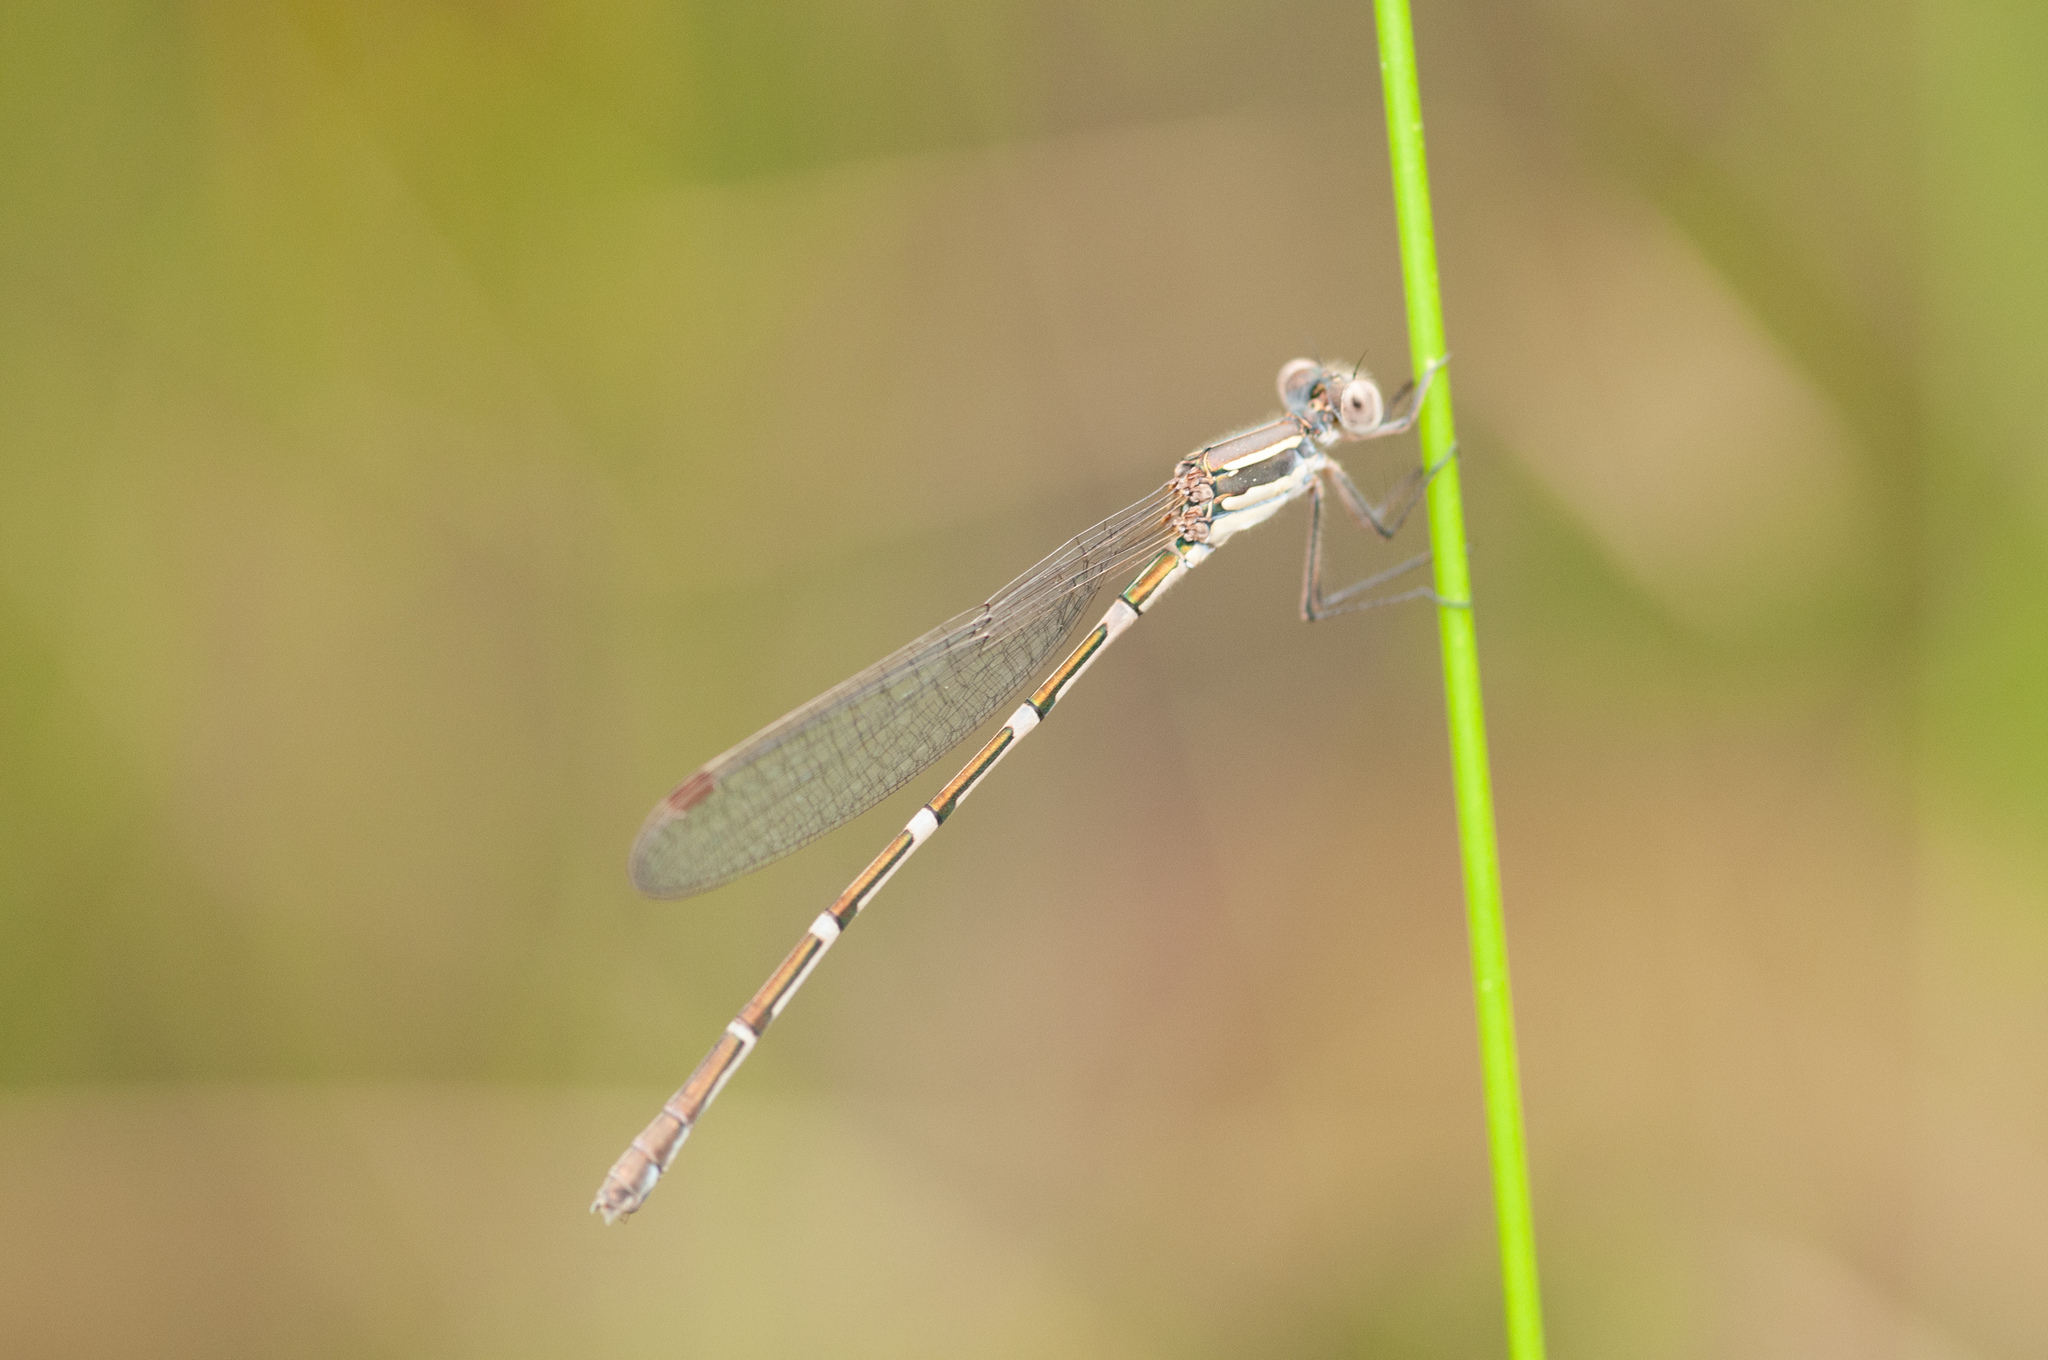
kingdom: Animalia
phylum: Arthropoda
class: Insecta
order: Odonata
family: Lestidae
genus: Austrolestes
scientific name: Austrolestes leda
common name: Wandering ringtail
